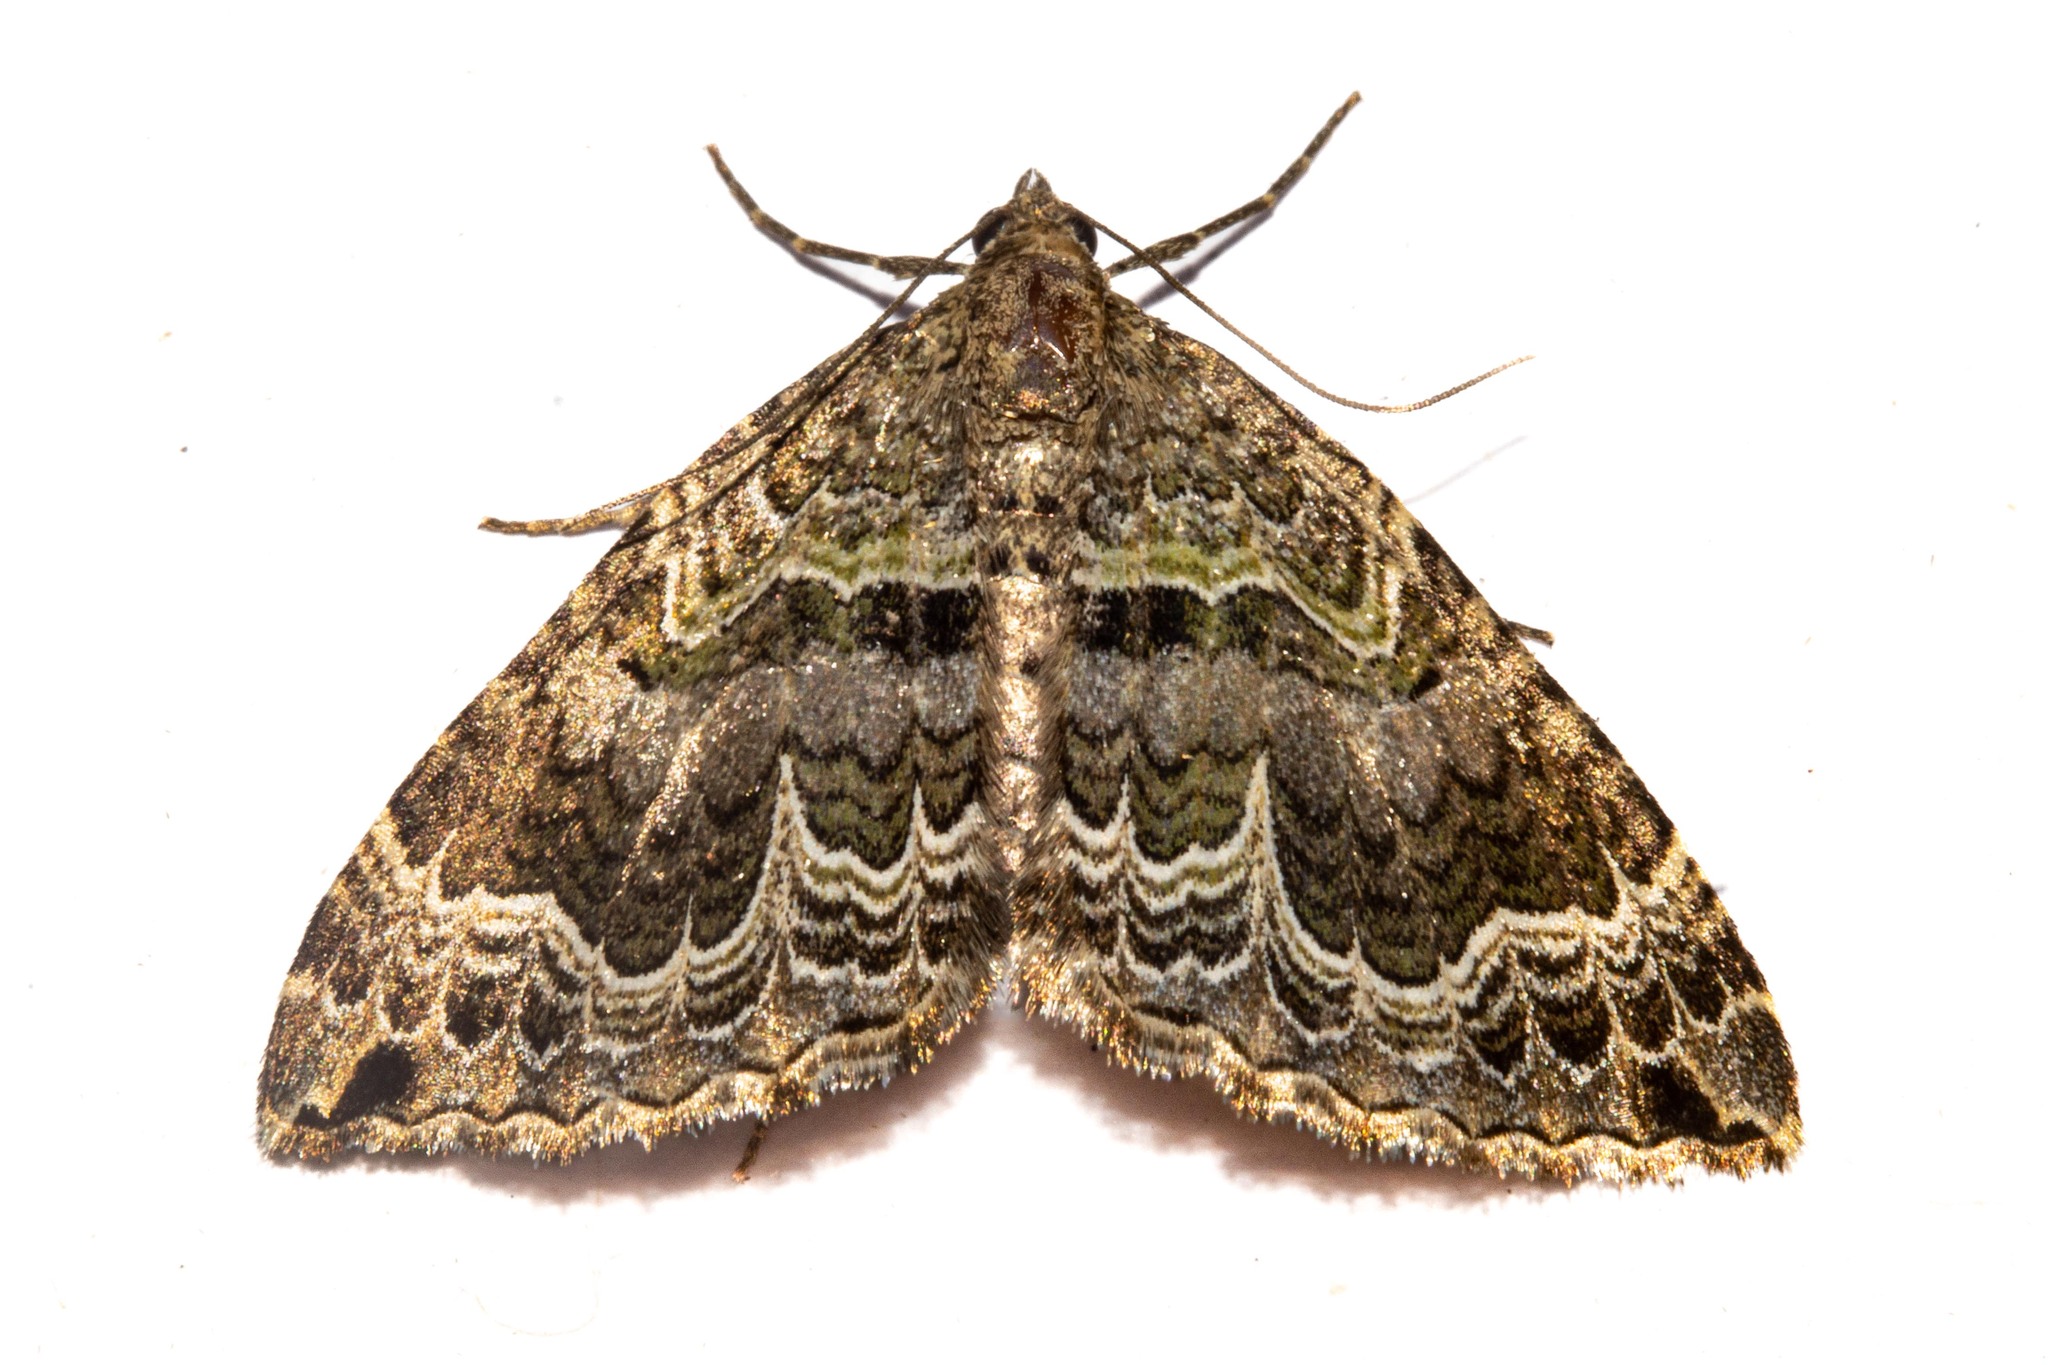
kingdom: Animalia
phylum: Arthropoda
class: Insecta
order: Lepidoptera
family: Geometridae
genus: Hydriomena
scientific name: Hydriomena rixata
